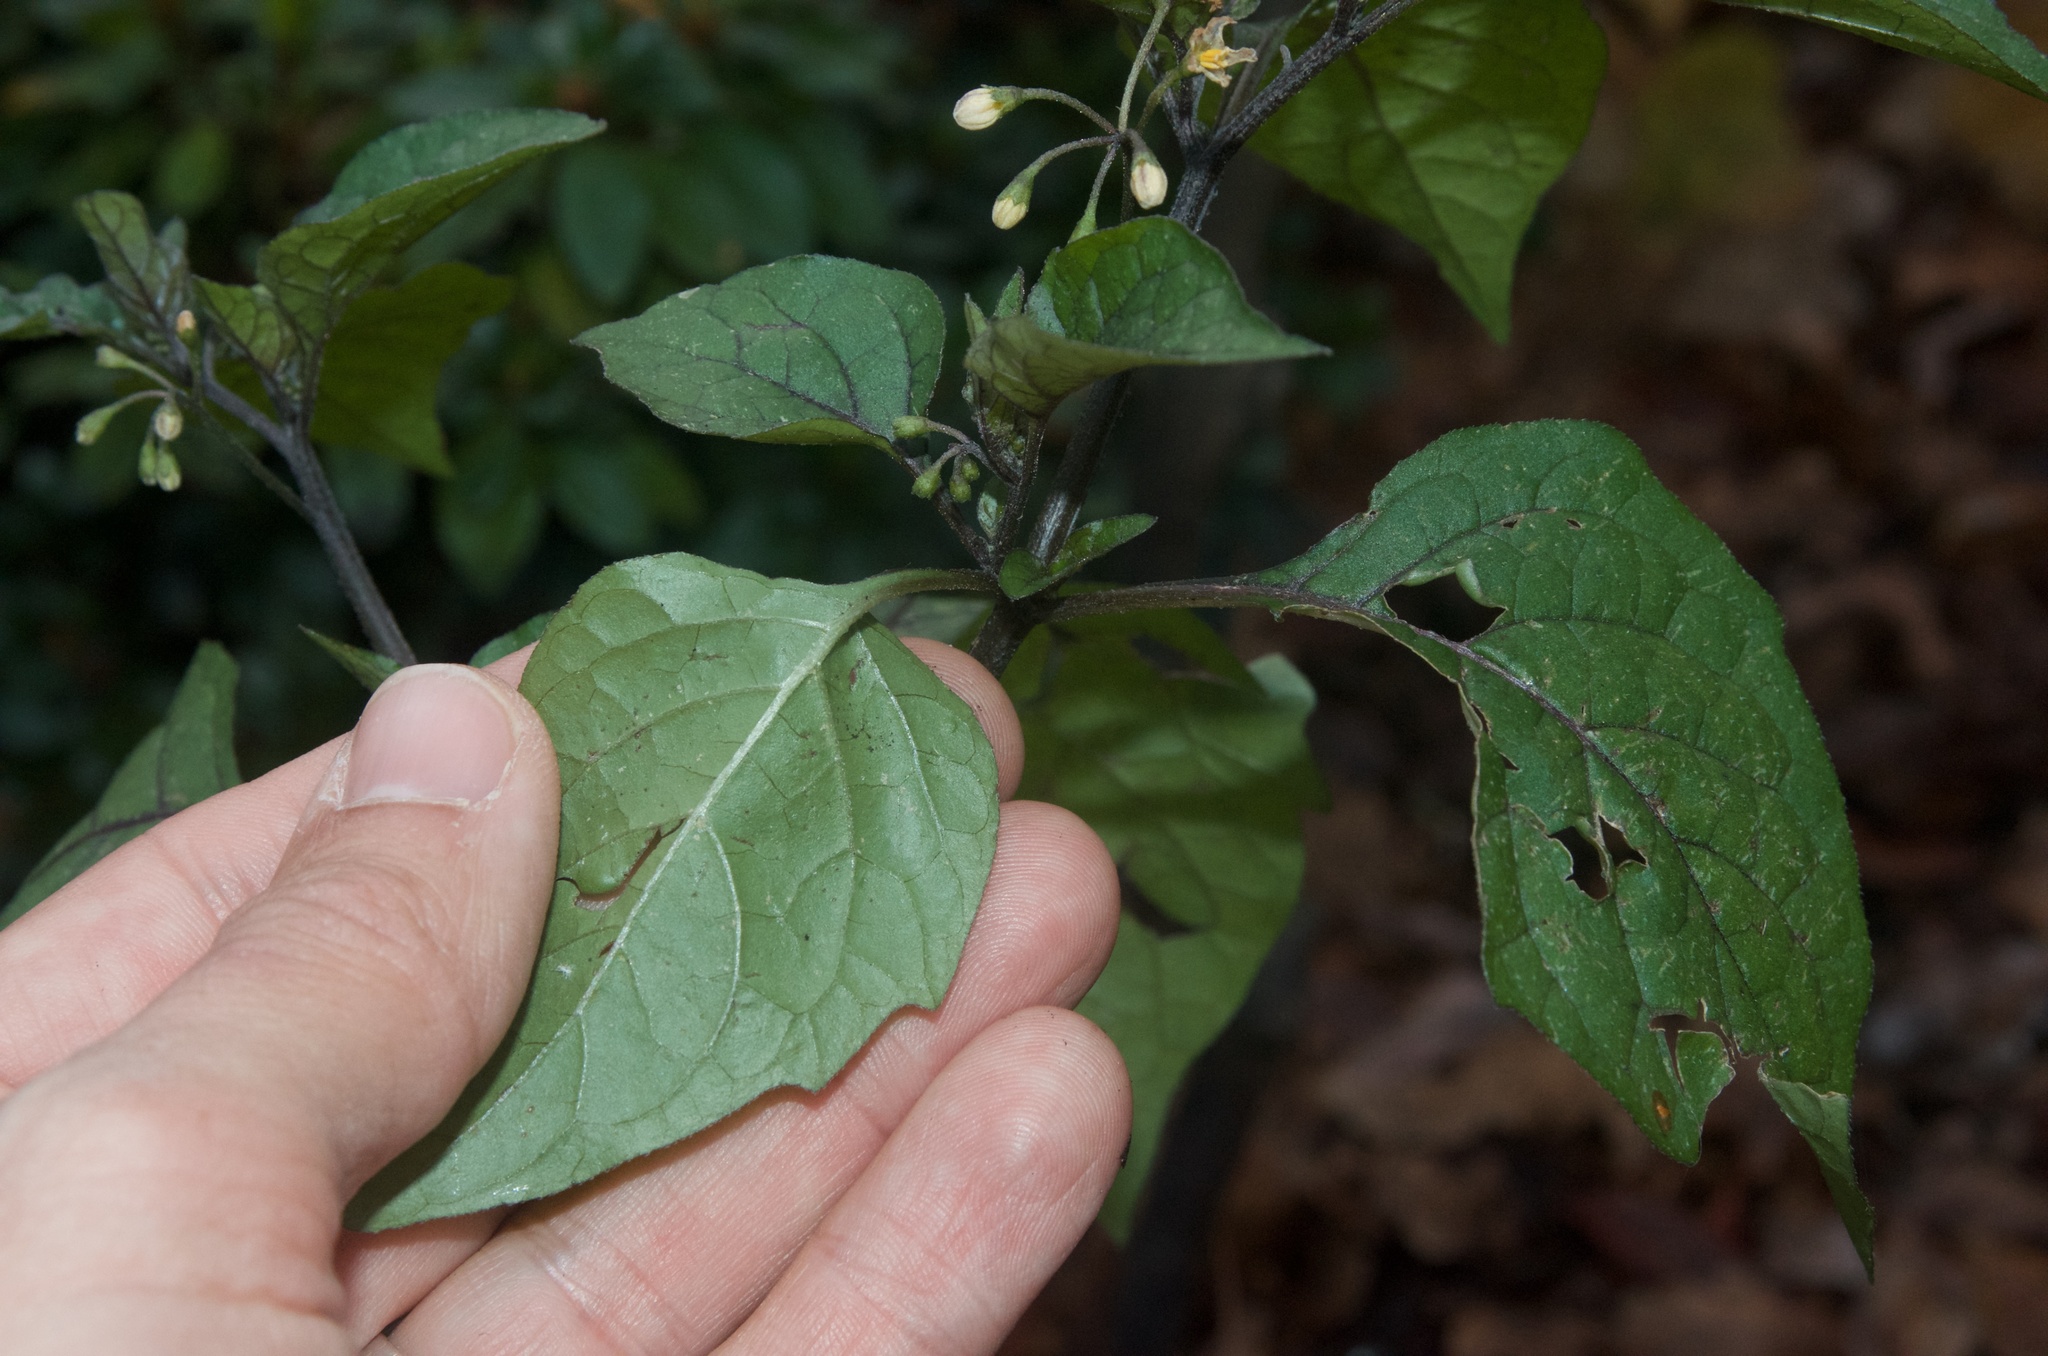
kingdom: Plantae
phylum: Tracheophyta
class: Magnoliopsida
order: Solanales
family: Solanaceae
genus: Solanum
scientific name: Solanum nigrum
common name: Black nightshade
